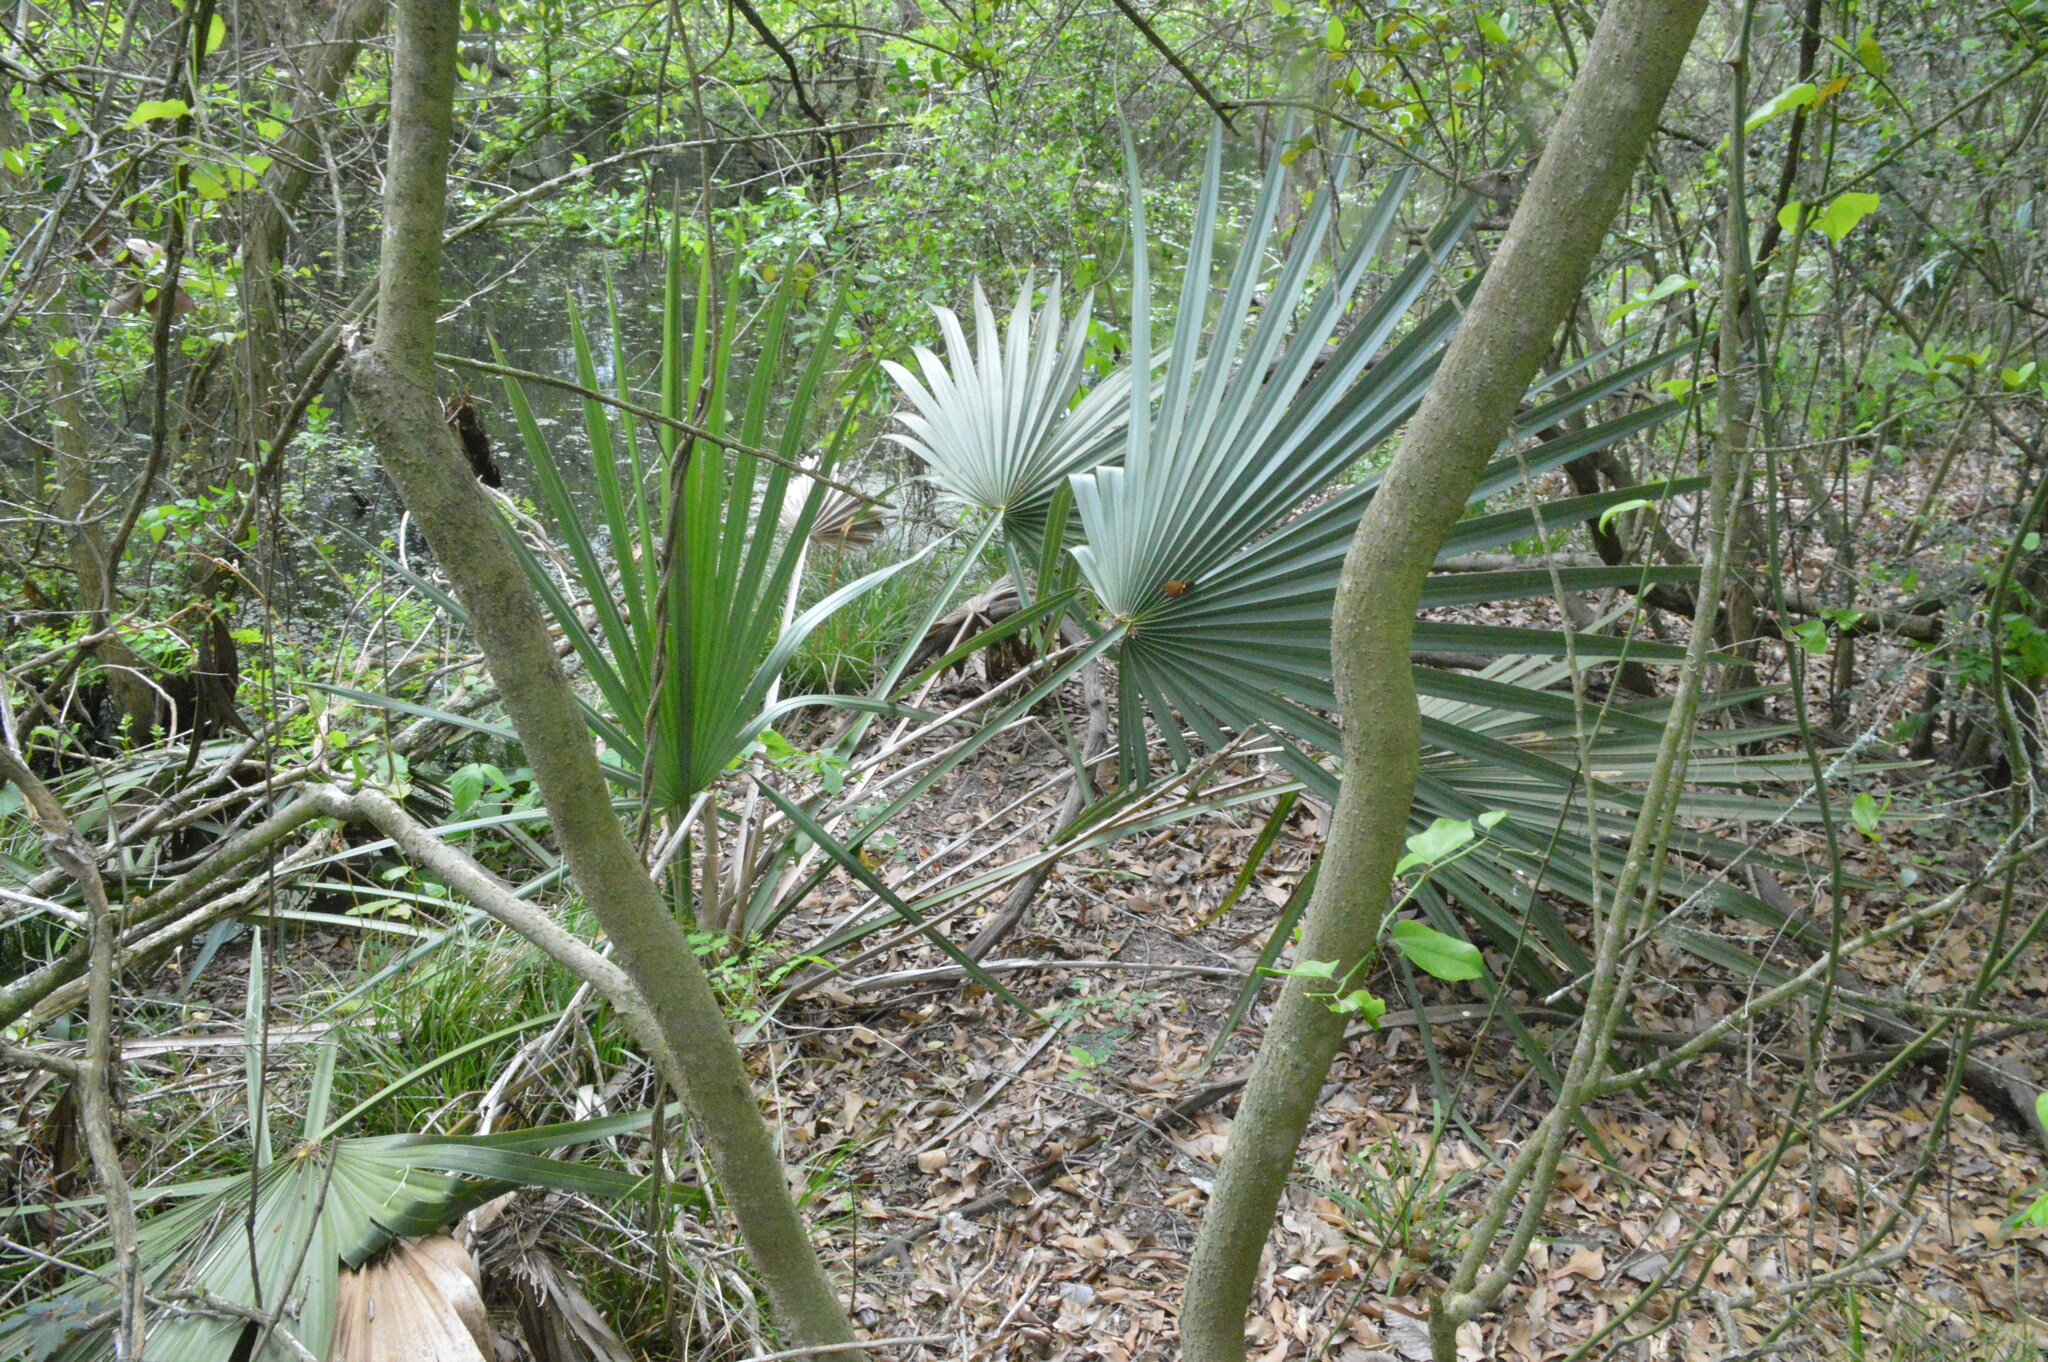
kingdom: Plantae
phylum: Tracheophyta
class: Liliopsida
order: Arecales
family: Arecaceae
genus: Sabal
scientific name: Sabal minor
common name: Dwarf palmetto
